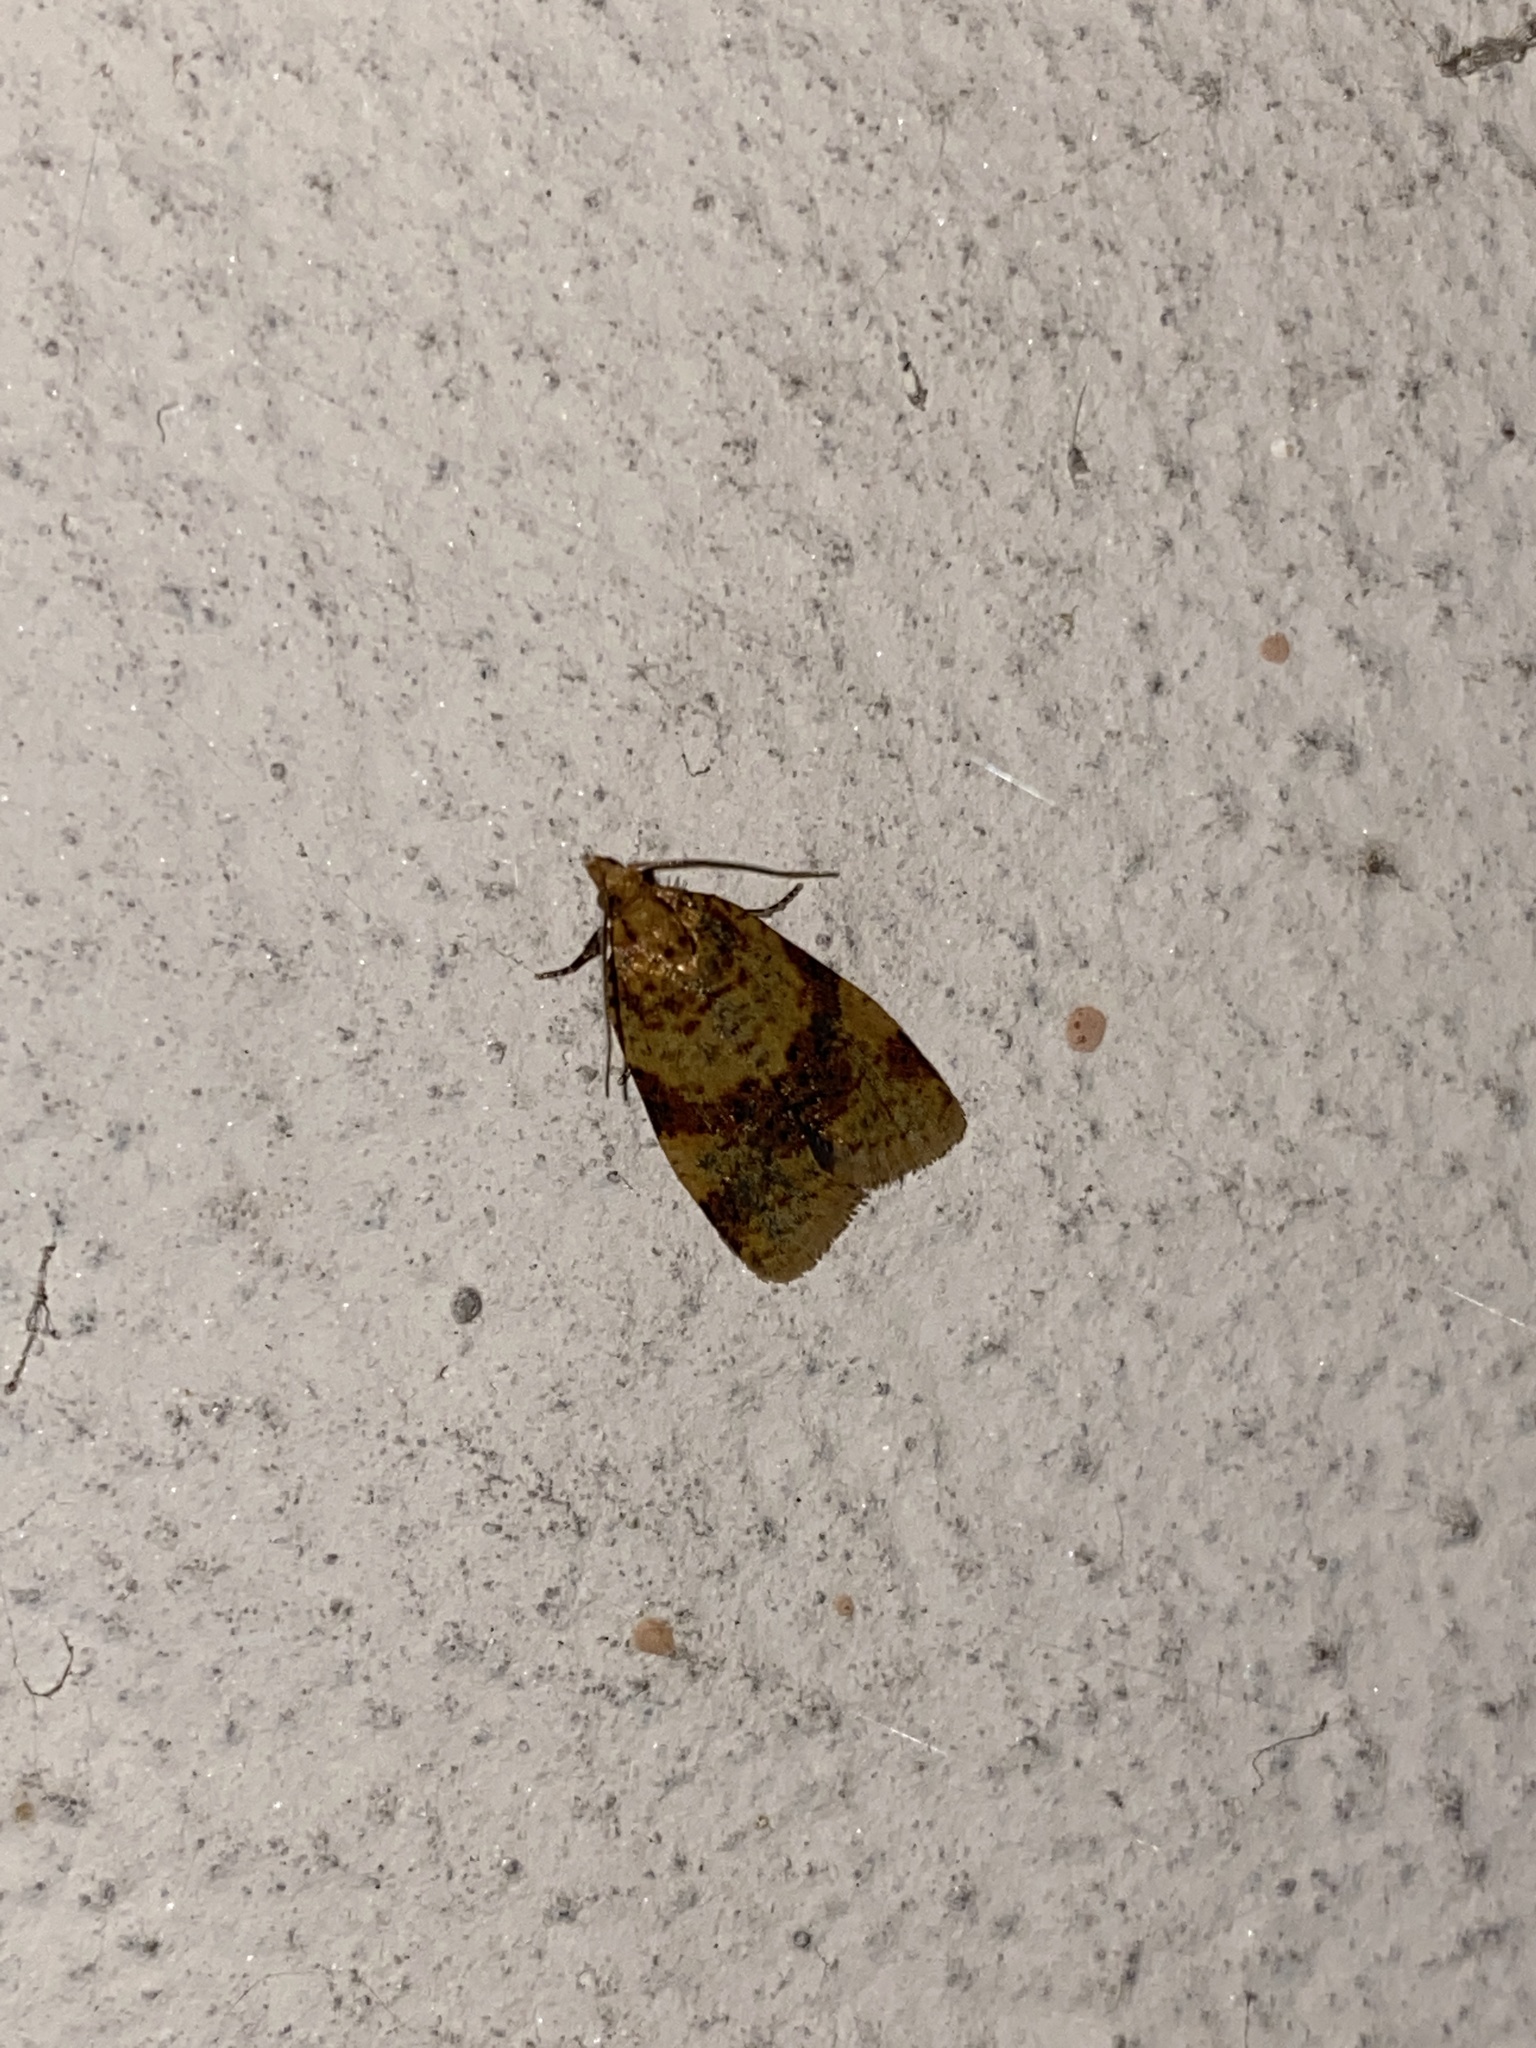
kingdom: Animalia
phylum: Arthropoda
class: Insecta
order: Lepidoptera
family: Tortricidae
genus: Epagoge
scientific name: Epagoge grotiana
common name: Brown-barred twist
